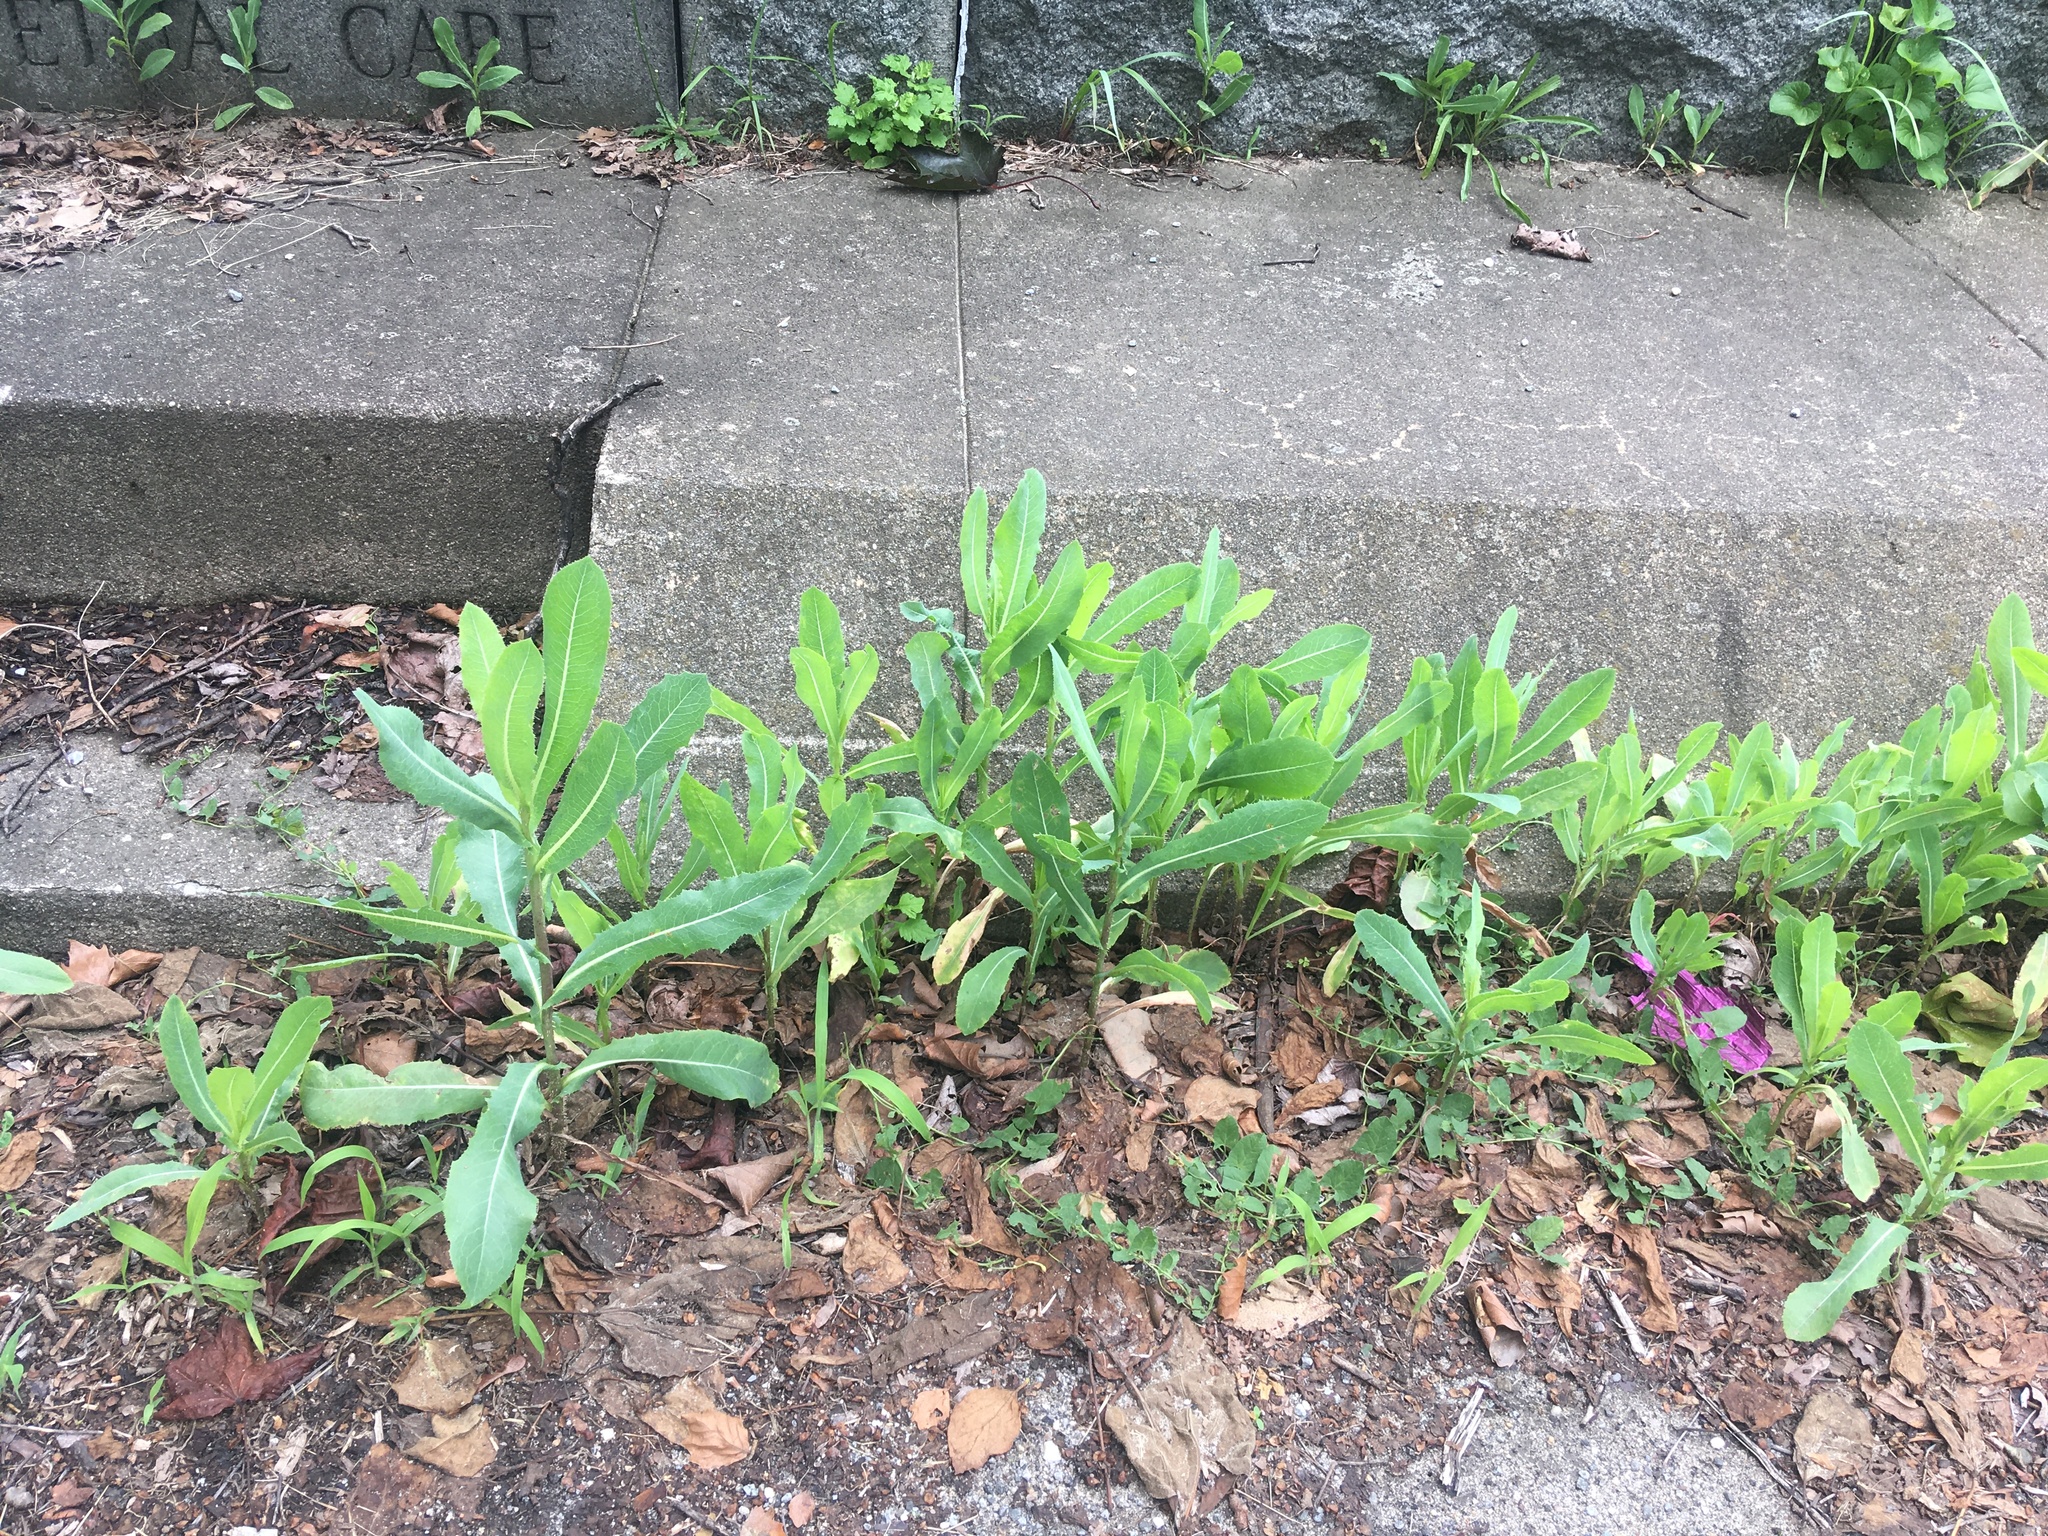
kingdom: Plantae
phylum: Tracheophyta
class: Magnoliopsida
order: Asterales
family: Asteraceae
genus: Lactuca
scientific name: Lactuca serriola
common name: Prickly lettuce
